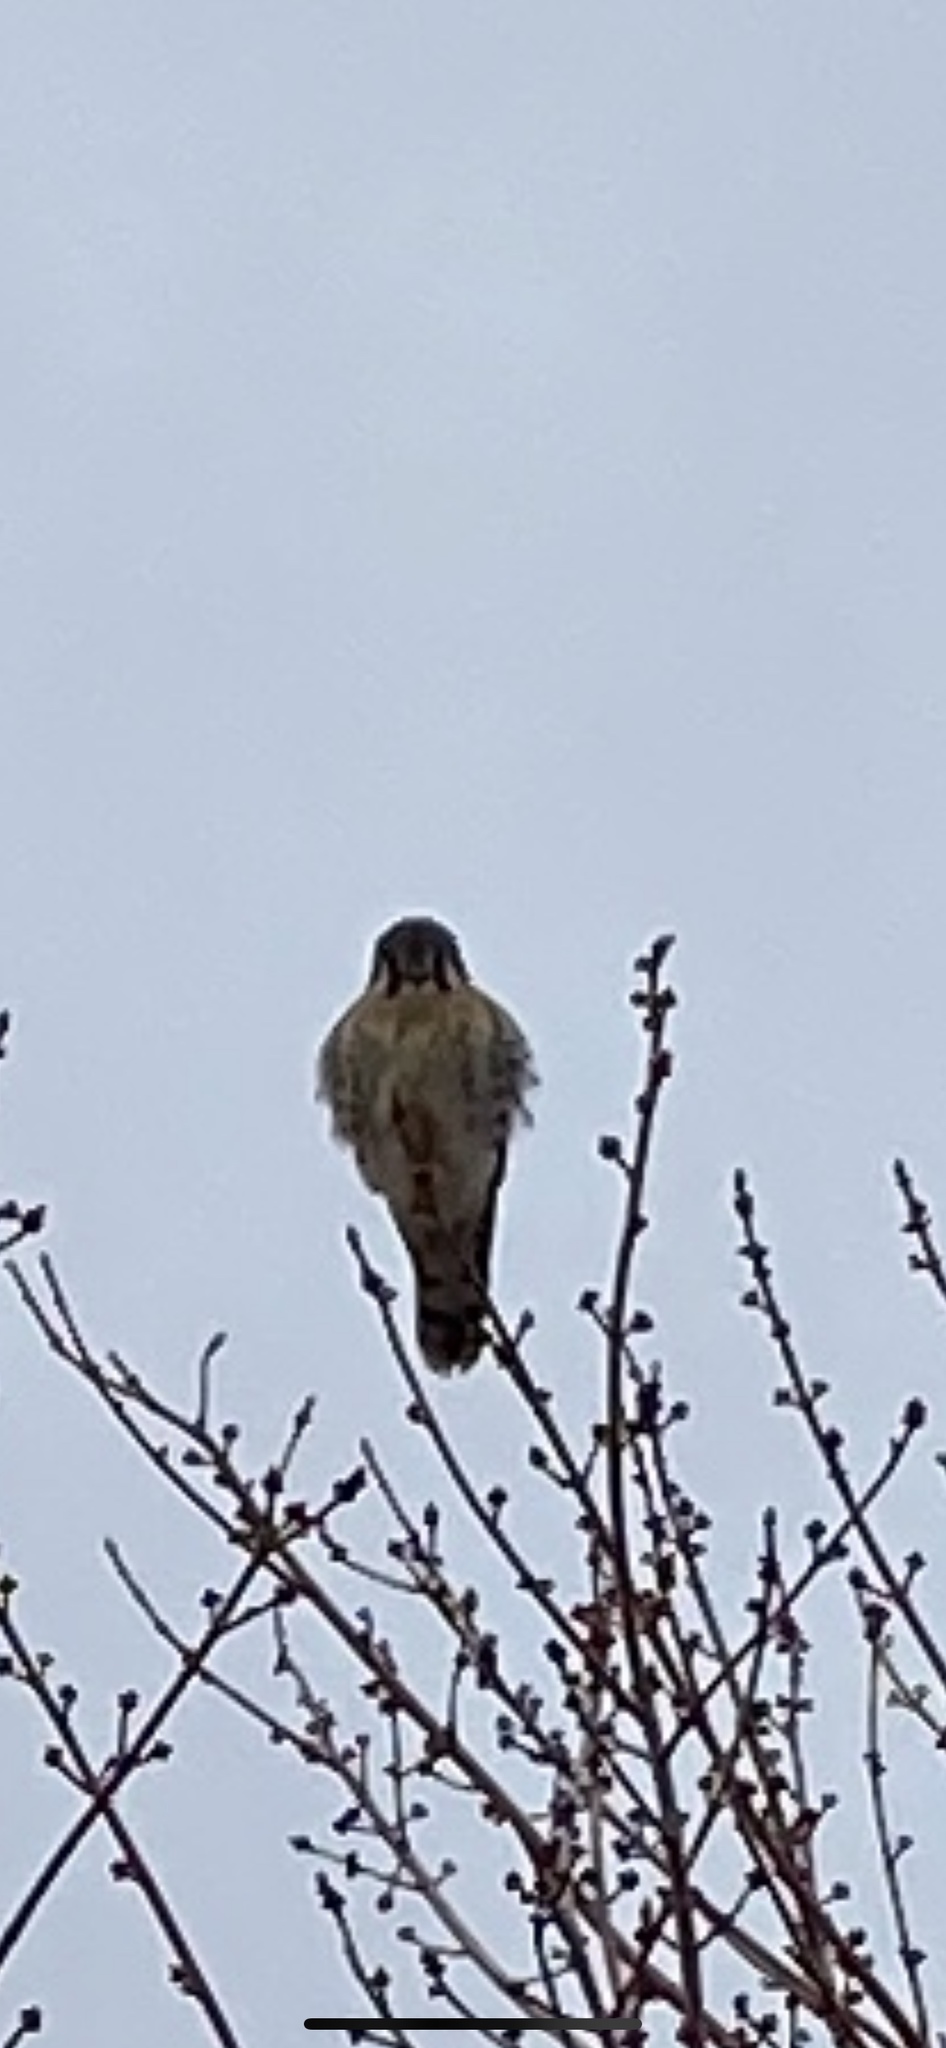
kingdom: Animalia
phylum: Chordata
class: Aves
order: Falconiformes
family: Falconidae
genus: Falco
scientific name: Falco sparverius
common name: American kestrel
